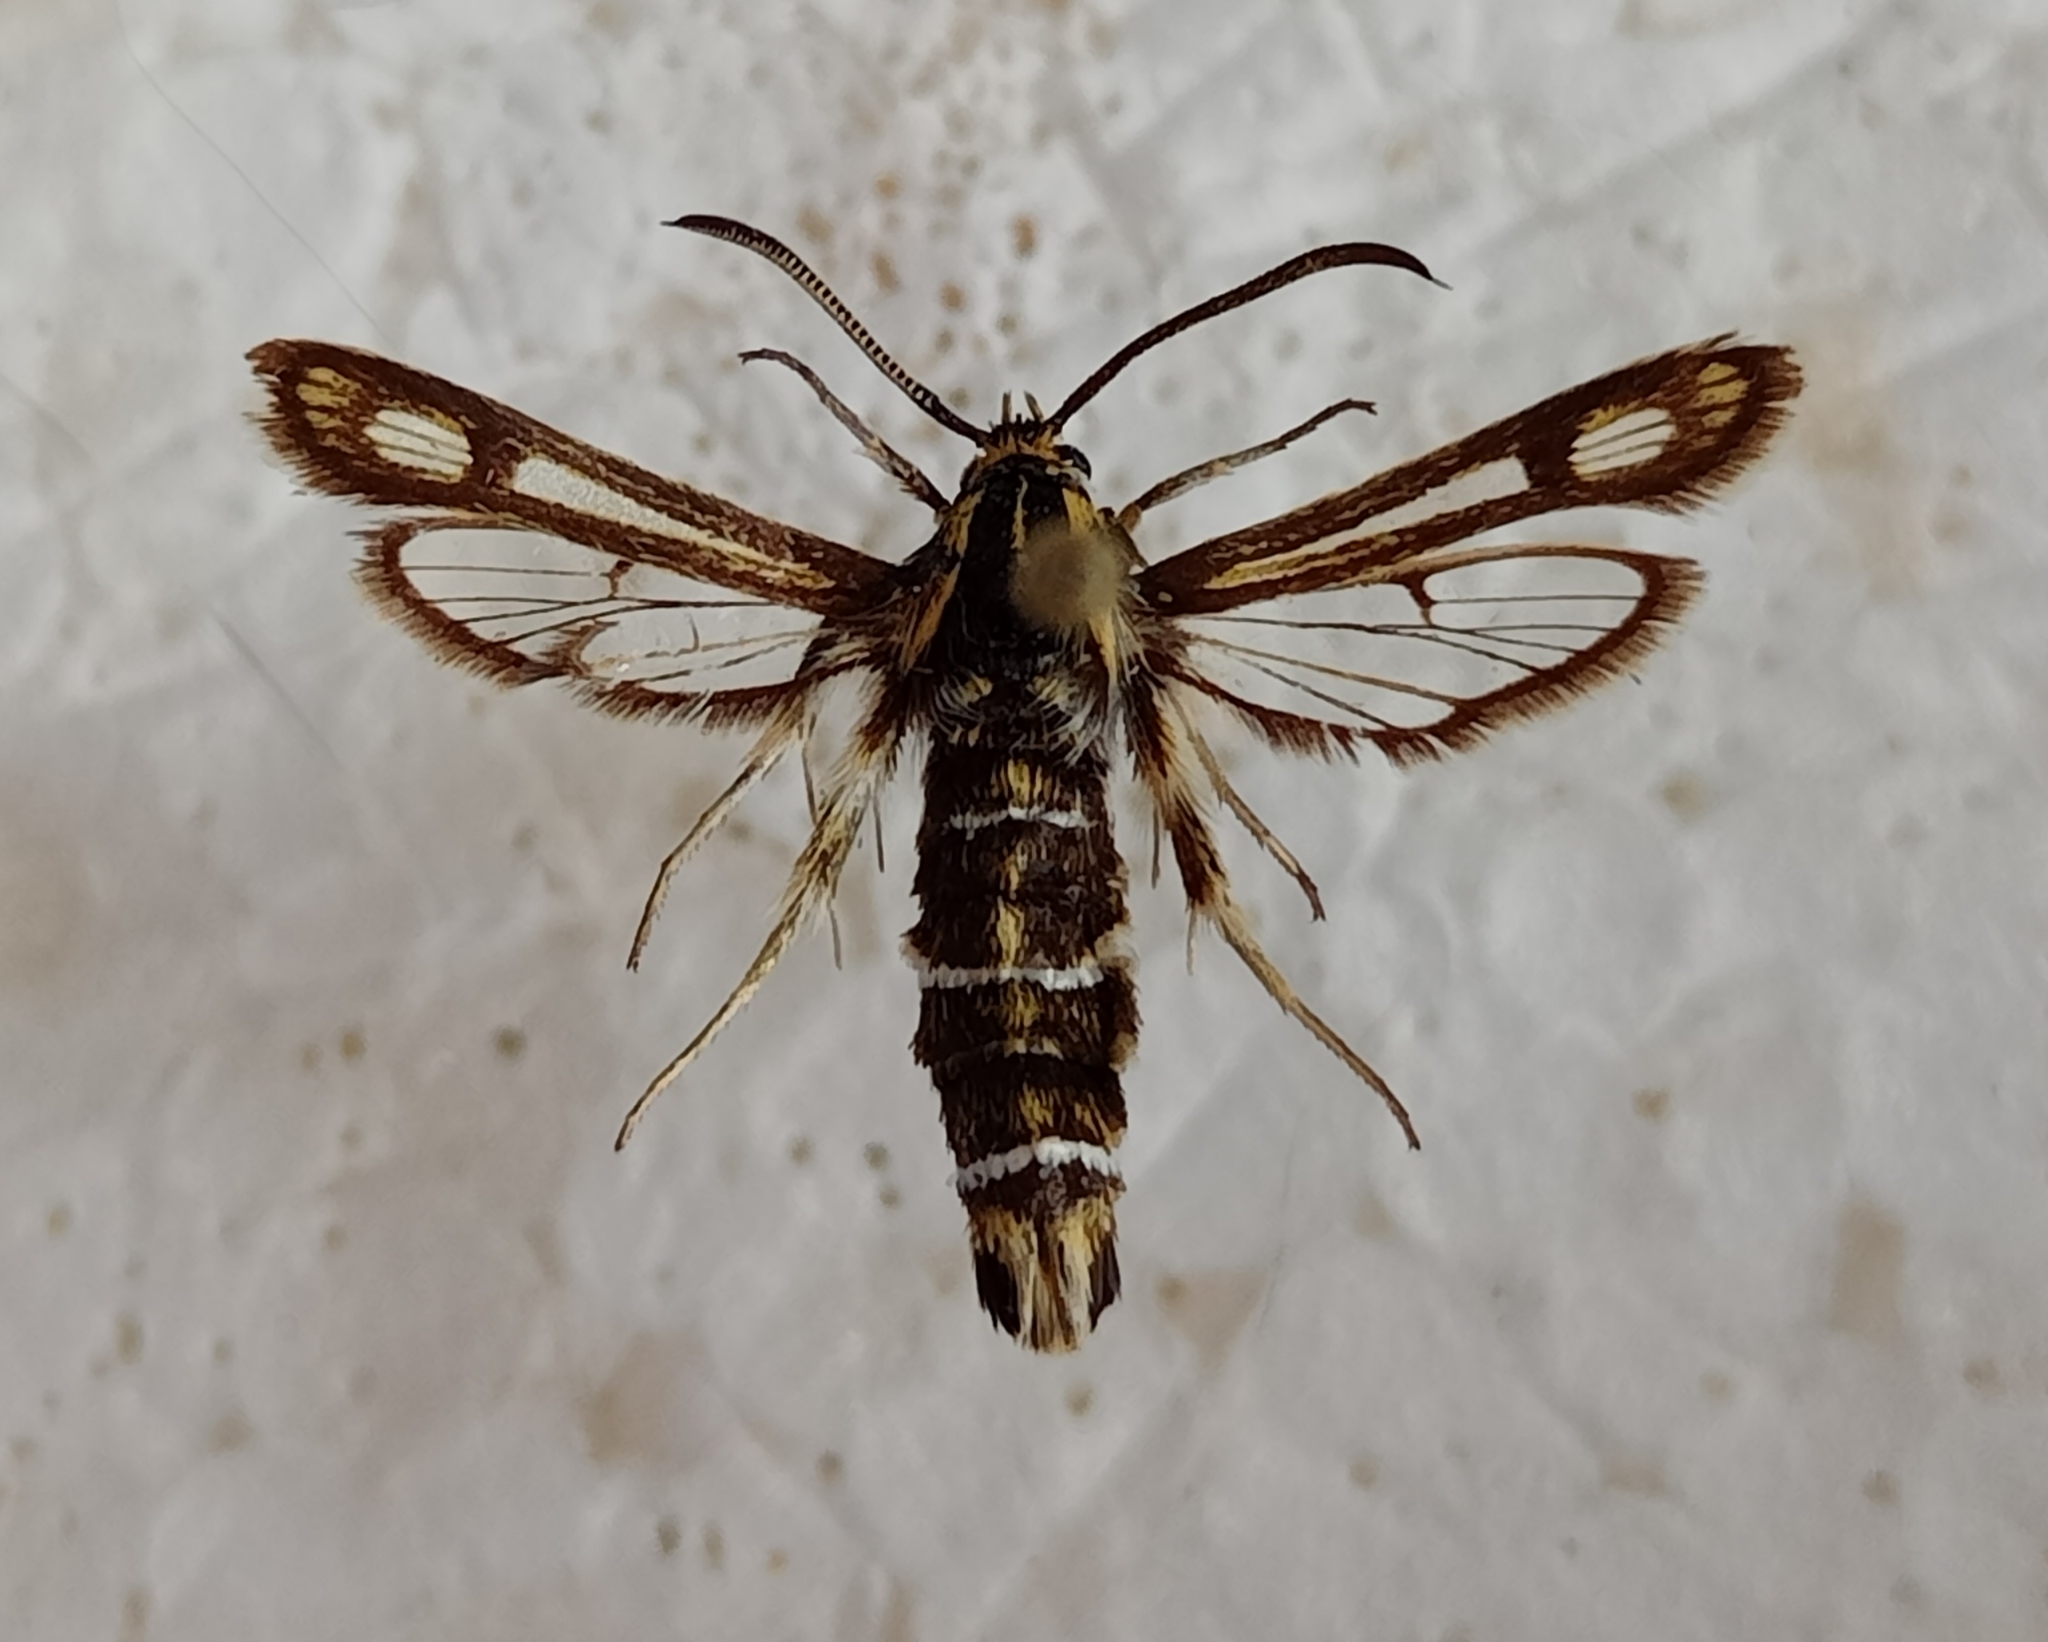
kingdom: Animalia
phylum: Arthropoda
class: Insecta
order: Lepidoptera
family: Sesiidae
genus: Chamaesphecia
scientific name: Chamaesphecia bibioniformis
